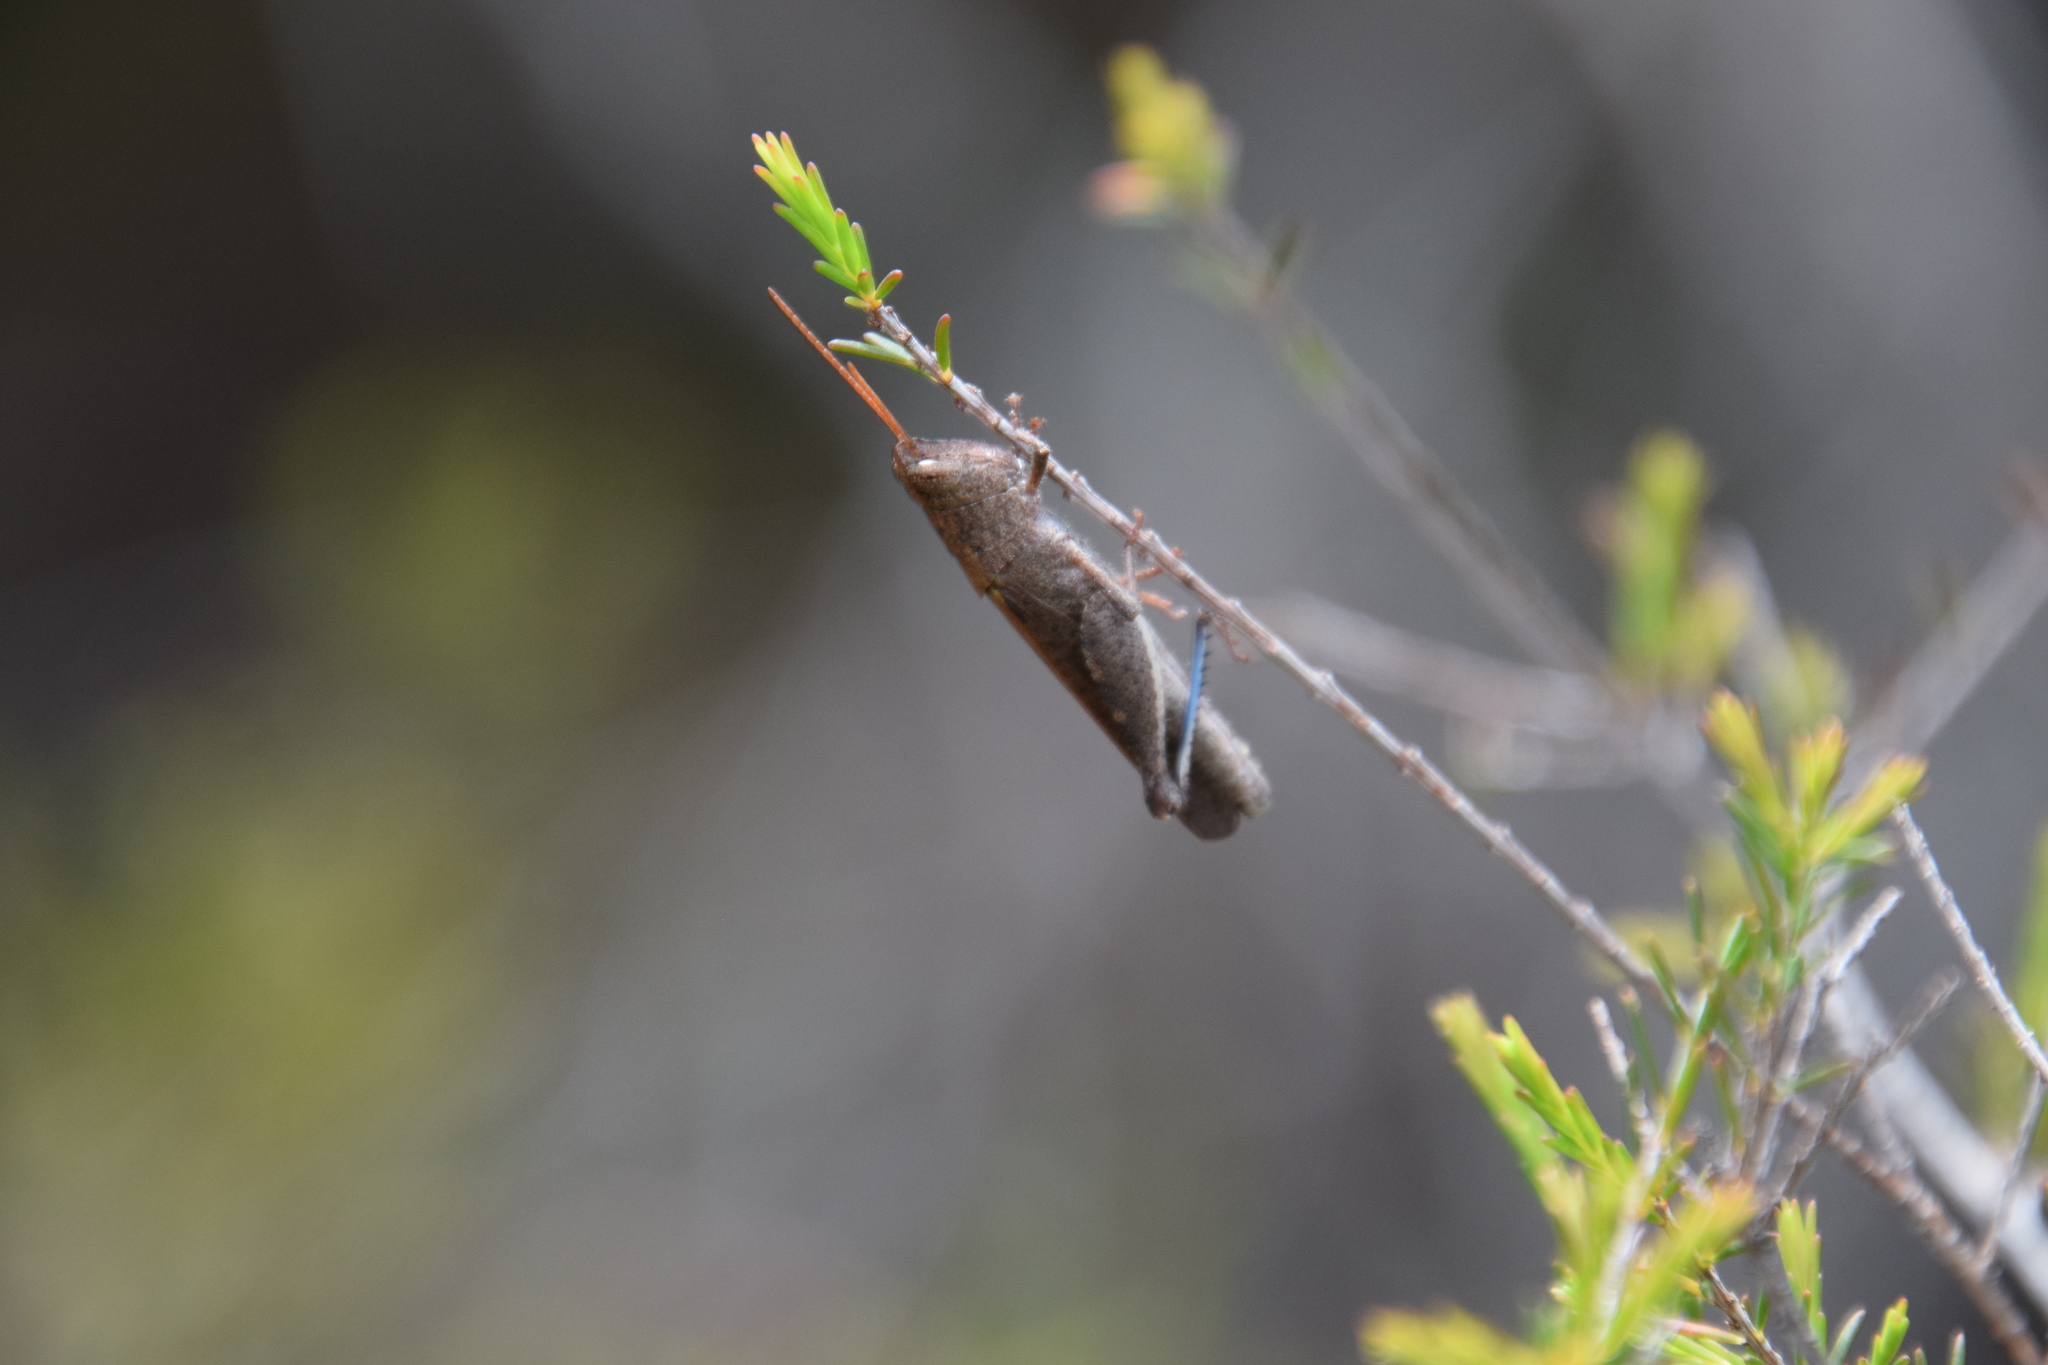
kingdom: Animalia
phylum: Arthropoda
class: Insecta
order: Orthoptera
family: Acrididae
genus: Goniaea
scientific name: Goniaea opomaloides
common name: Mimetic gumleaf grasshopper
